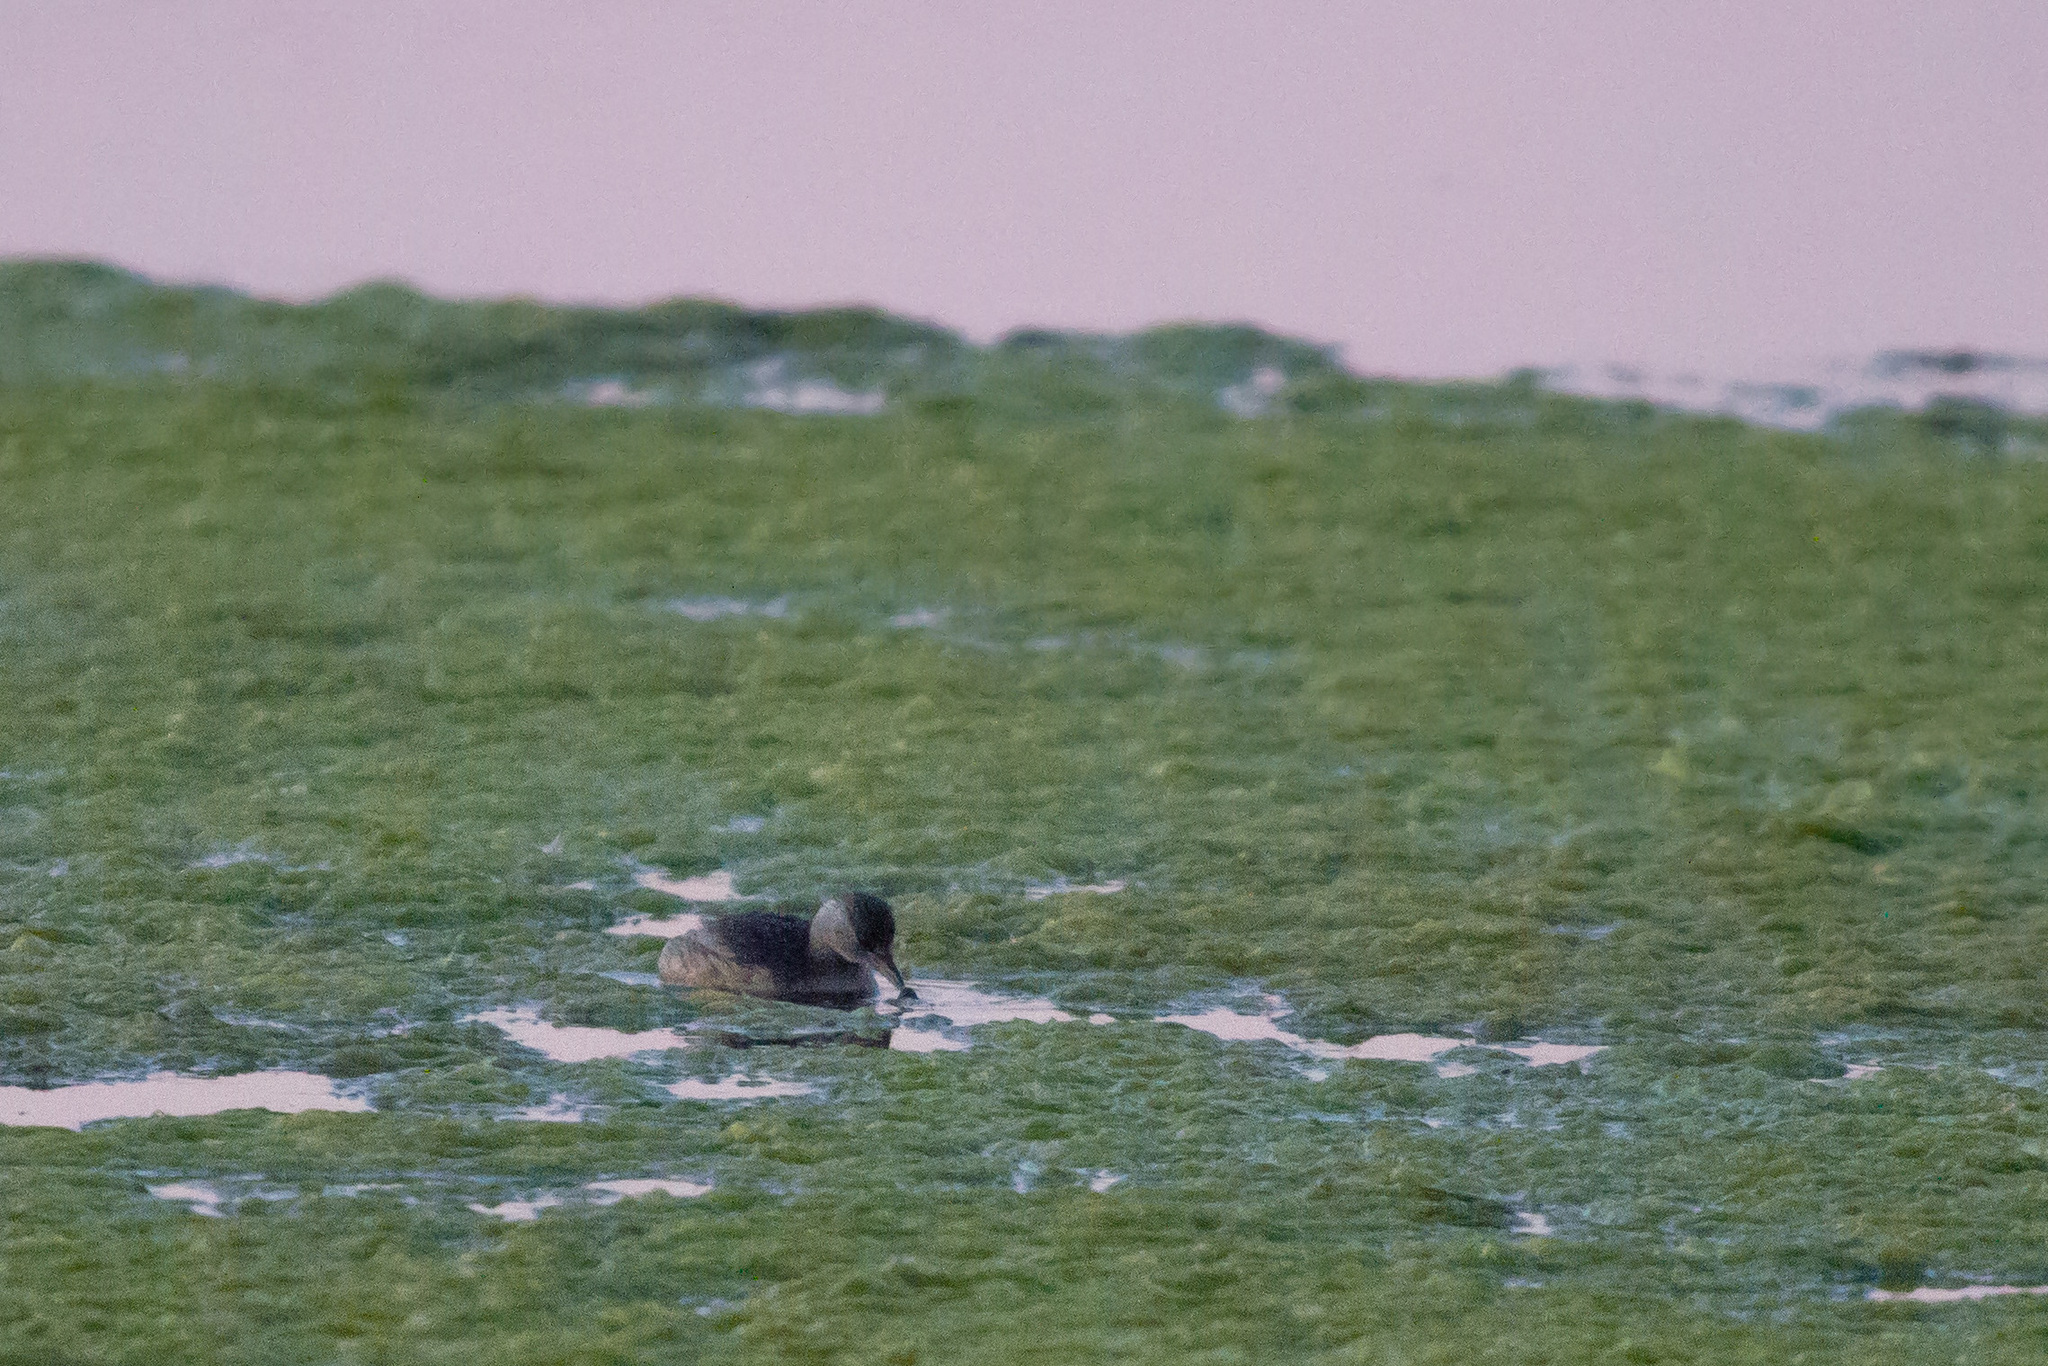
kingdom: Animalia
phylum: Chordata
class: Aves
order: Podicipediformes
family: Podicipedidae
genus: Tachybaptus
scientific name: Tachybaptus ruficollis
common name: Little grebe
